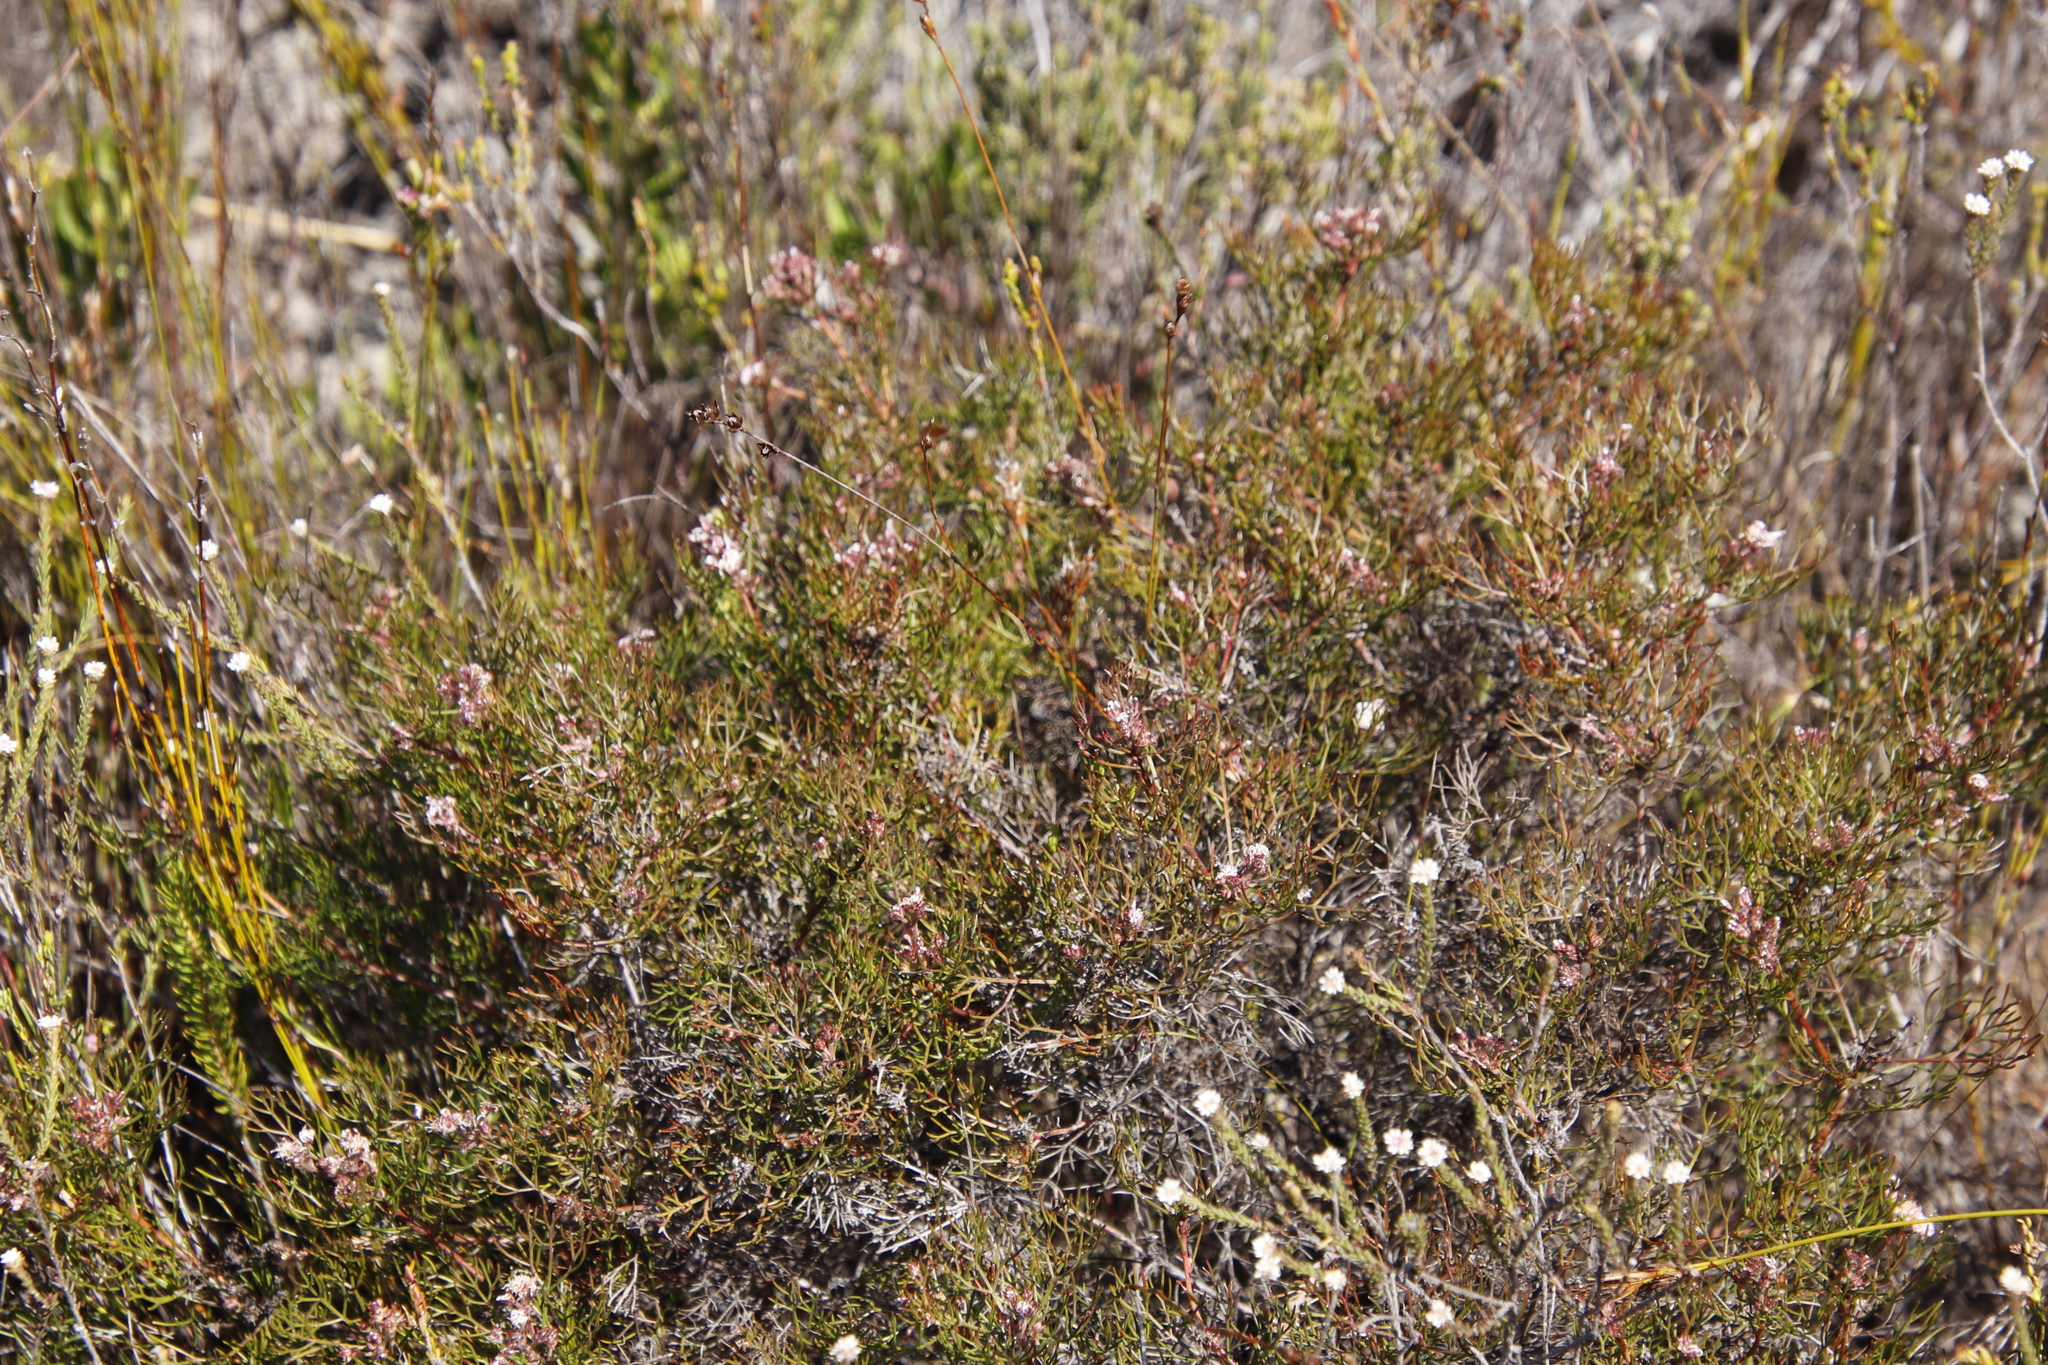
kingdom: Plantae
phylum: Tracheophyta
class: Magnoliopsida
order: Proteales
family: Proteaceae
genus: Serruria
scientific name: Serruria fasciflora
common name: Common pin spiderhead
